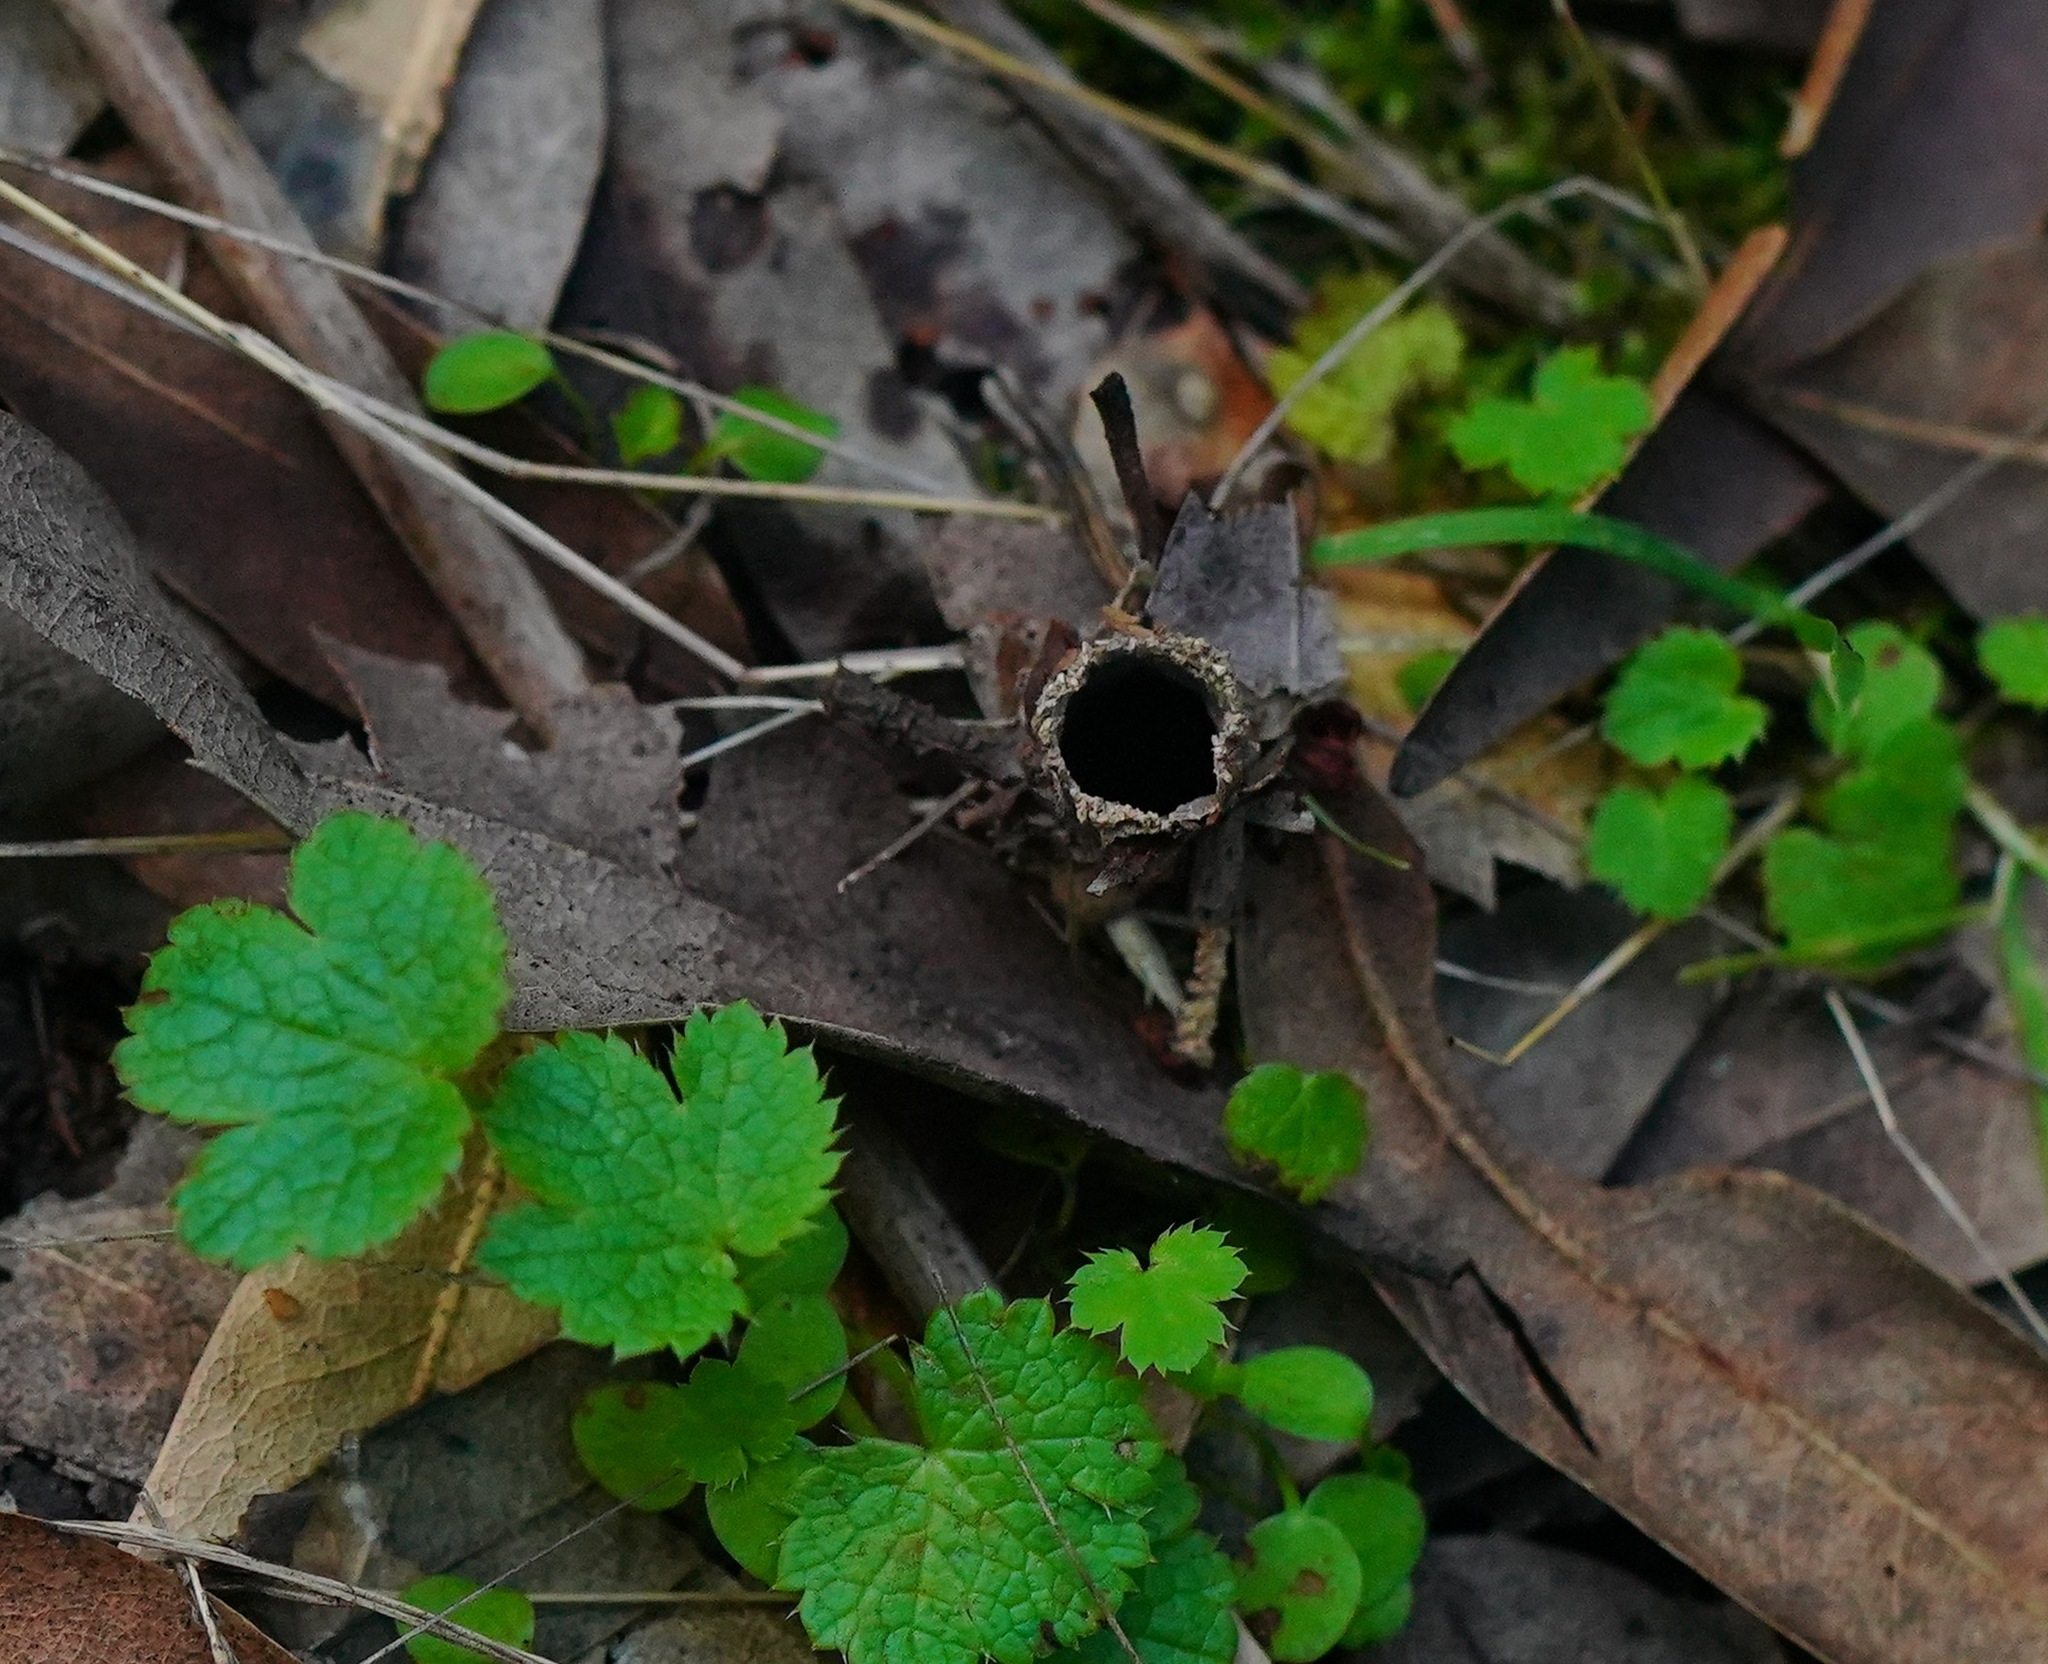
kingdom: Animalia
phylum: Arthropoda
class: Arachnida
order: Araneae
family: Antrodiaetidae
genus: Atypoides
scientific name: Atypoides riversi
